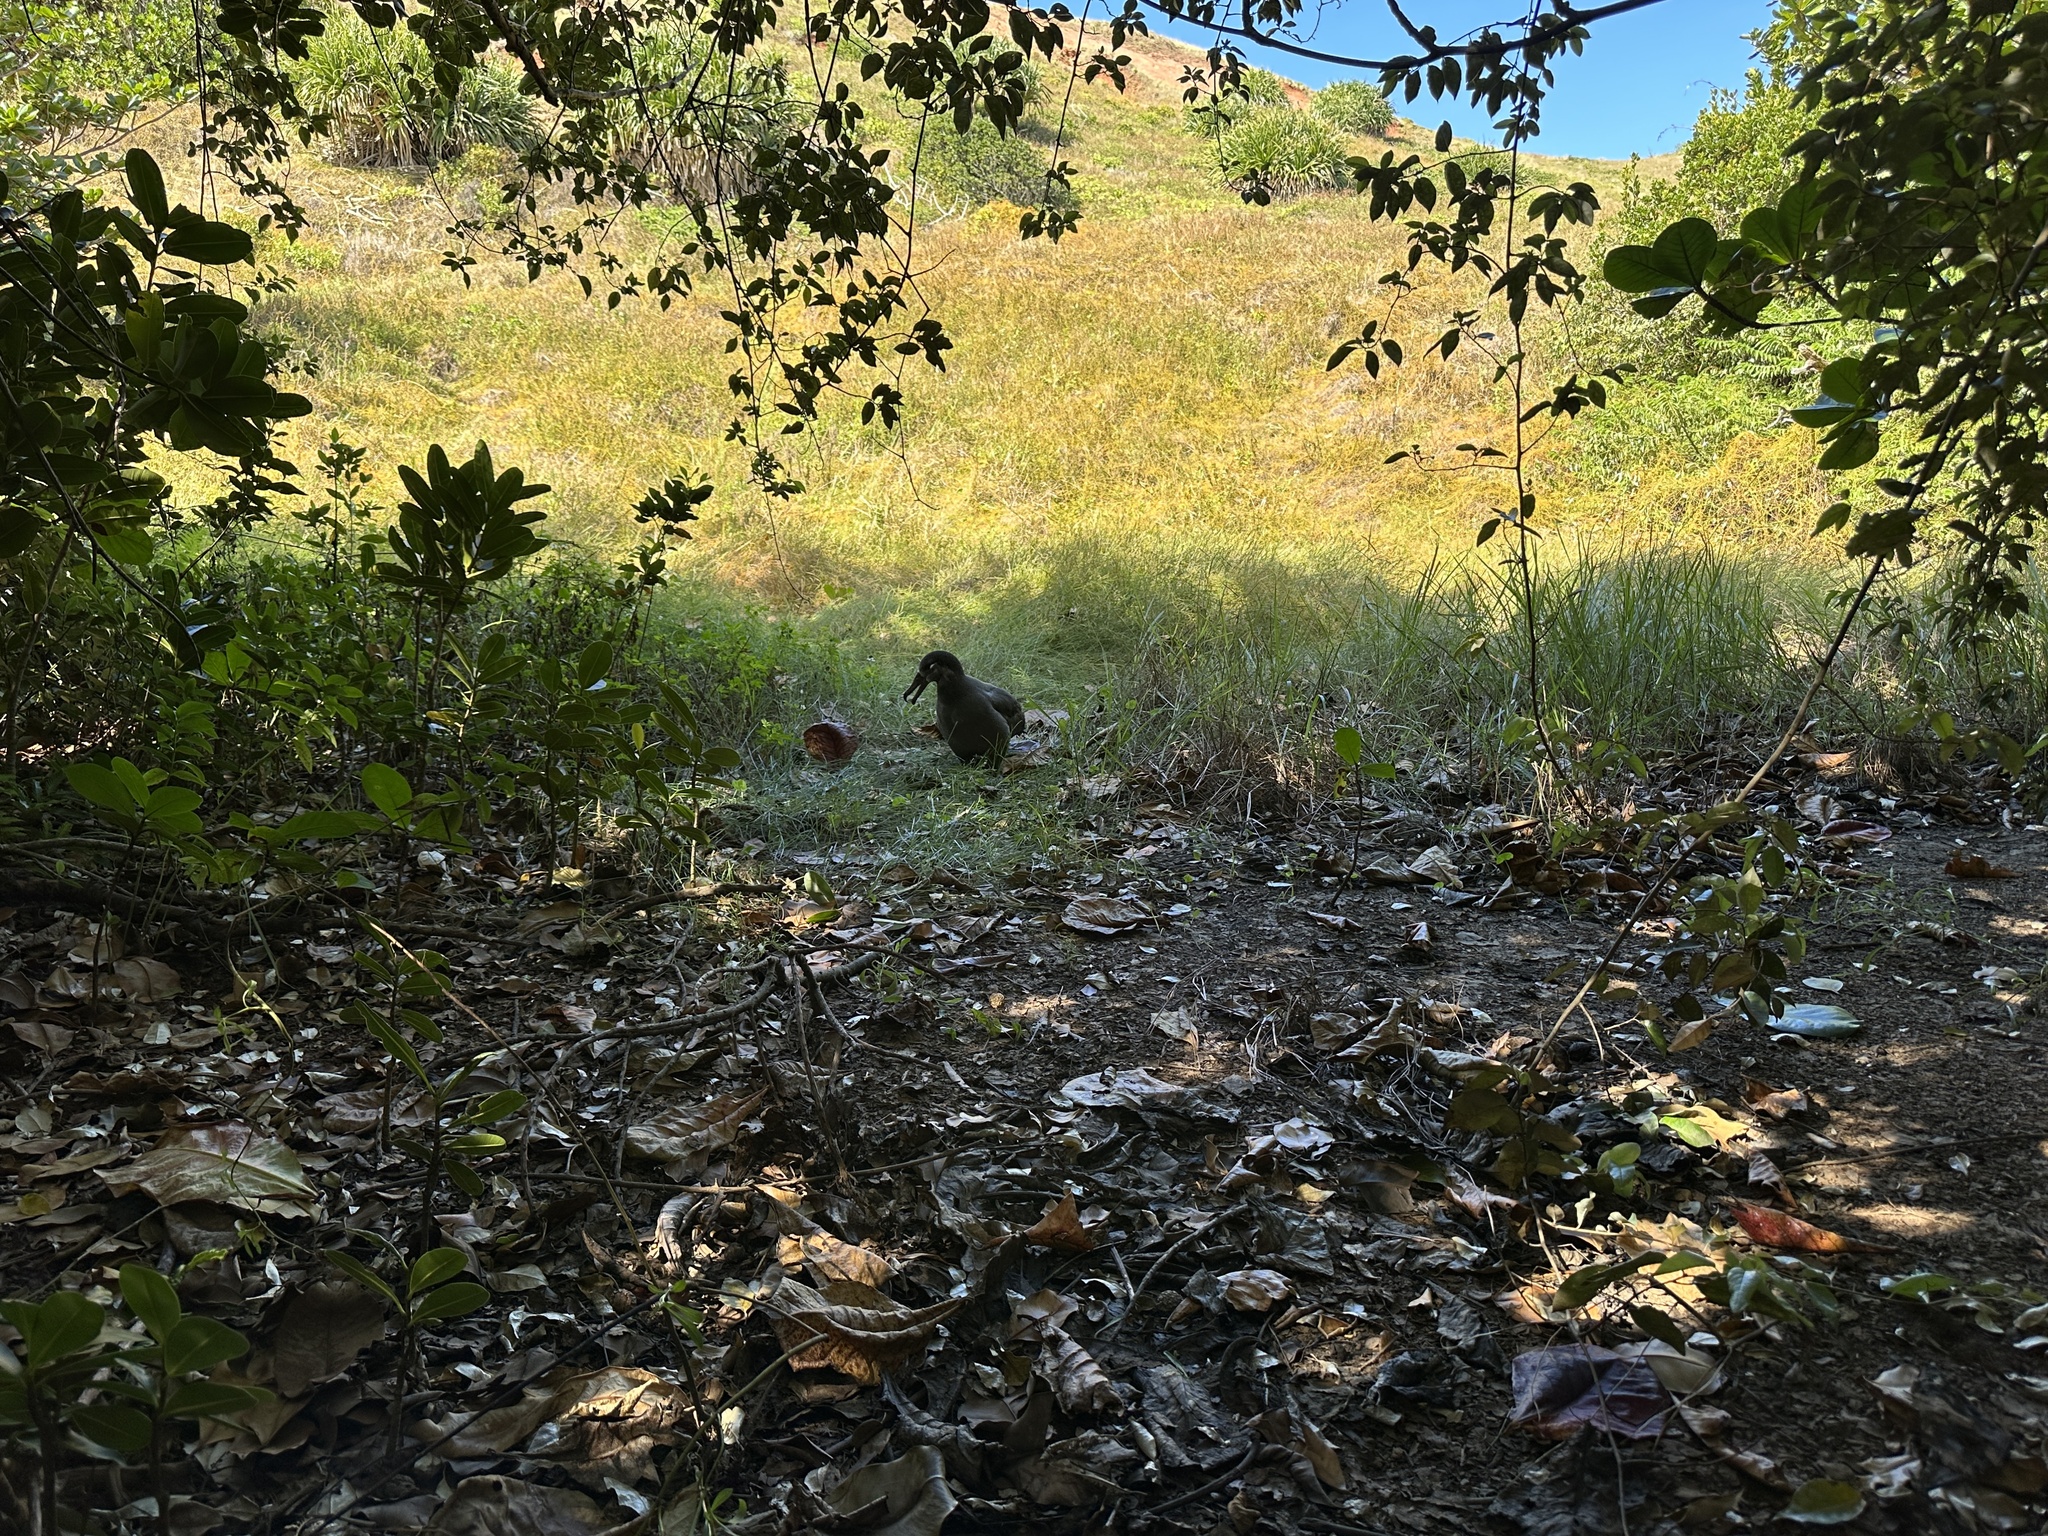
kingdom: Animalia
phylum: Chordata
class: Aves
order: Procellariiformes
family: Diomedeidae
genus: Phoebastria
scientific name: Phoebastria nigripes
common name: Black-footed albatross
